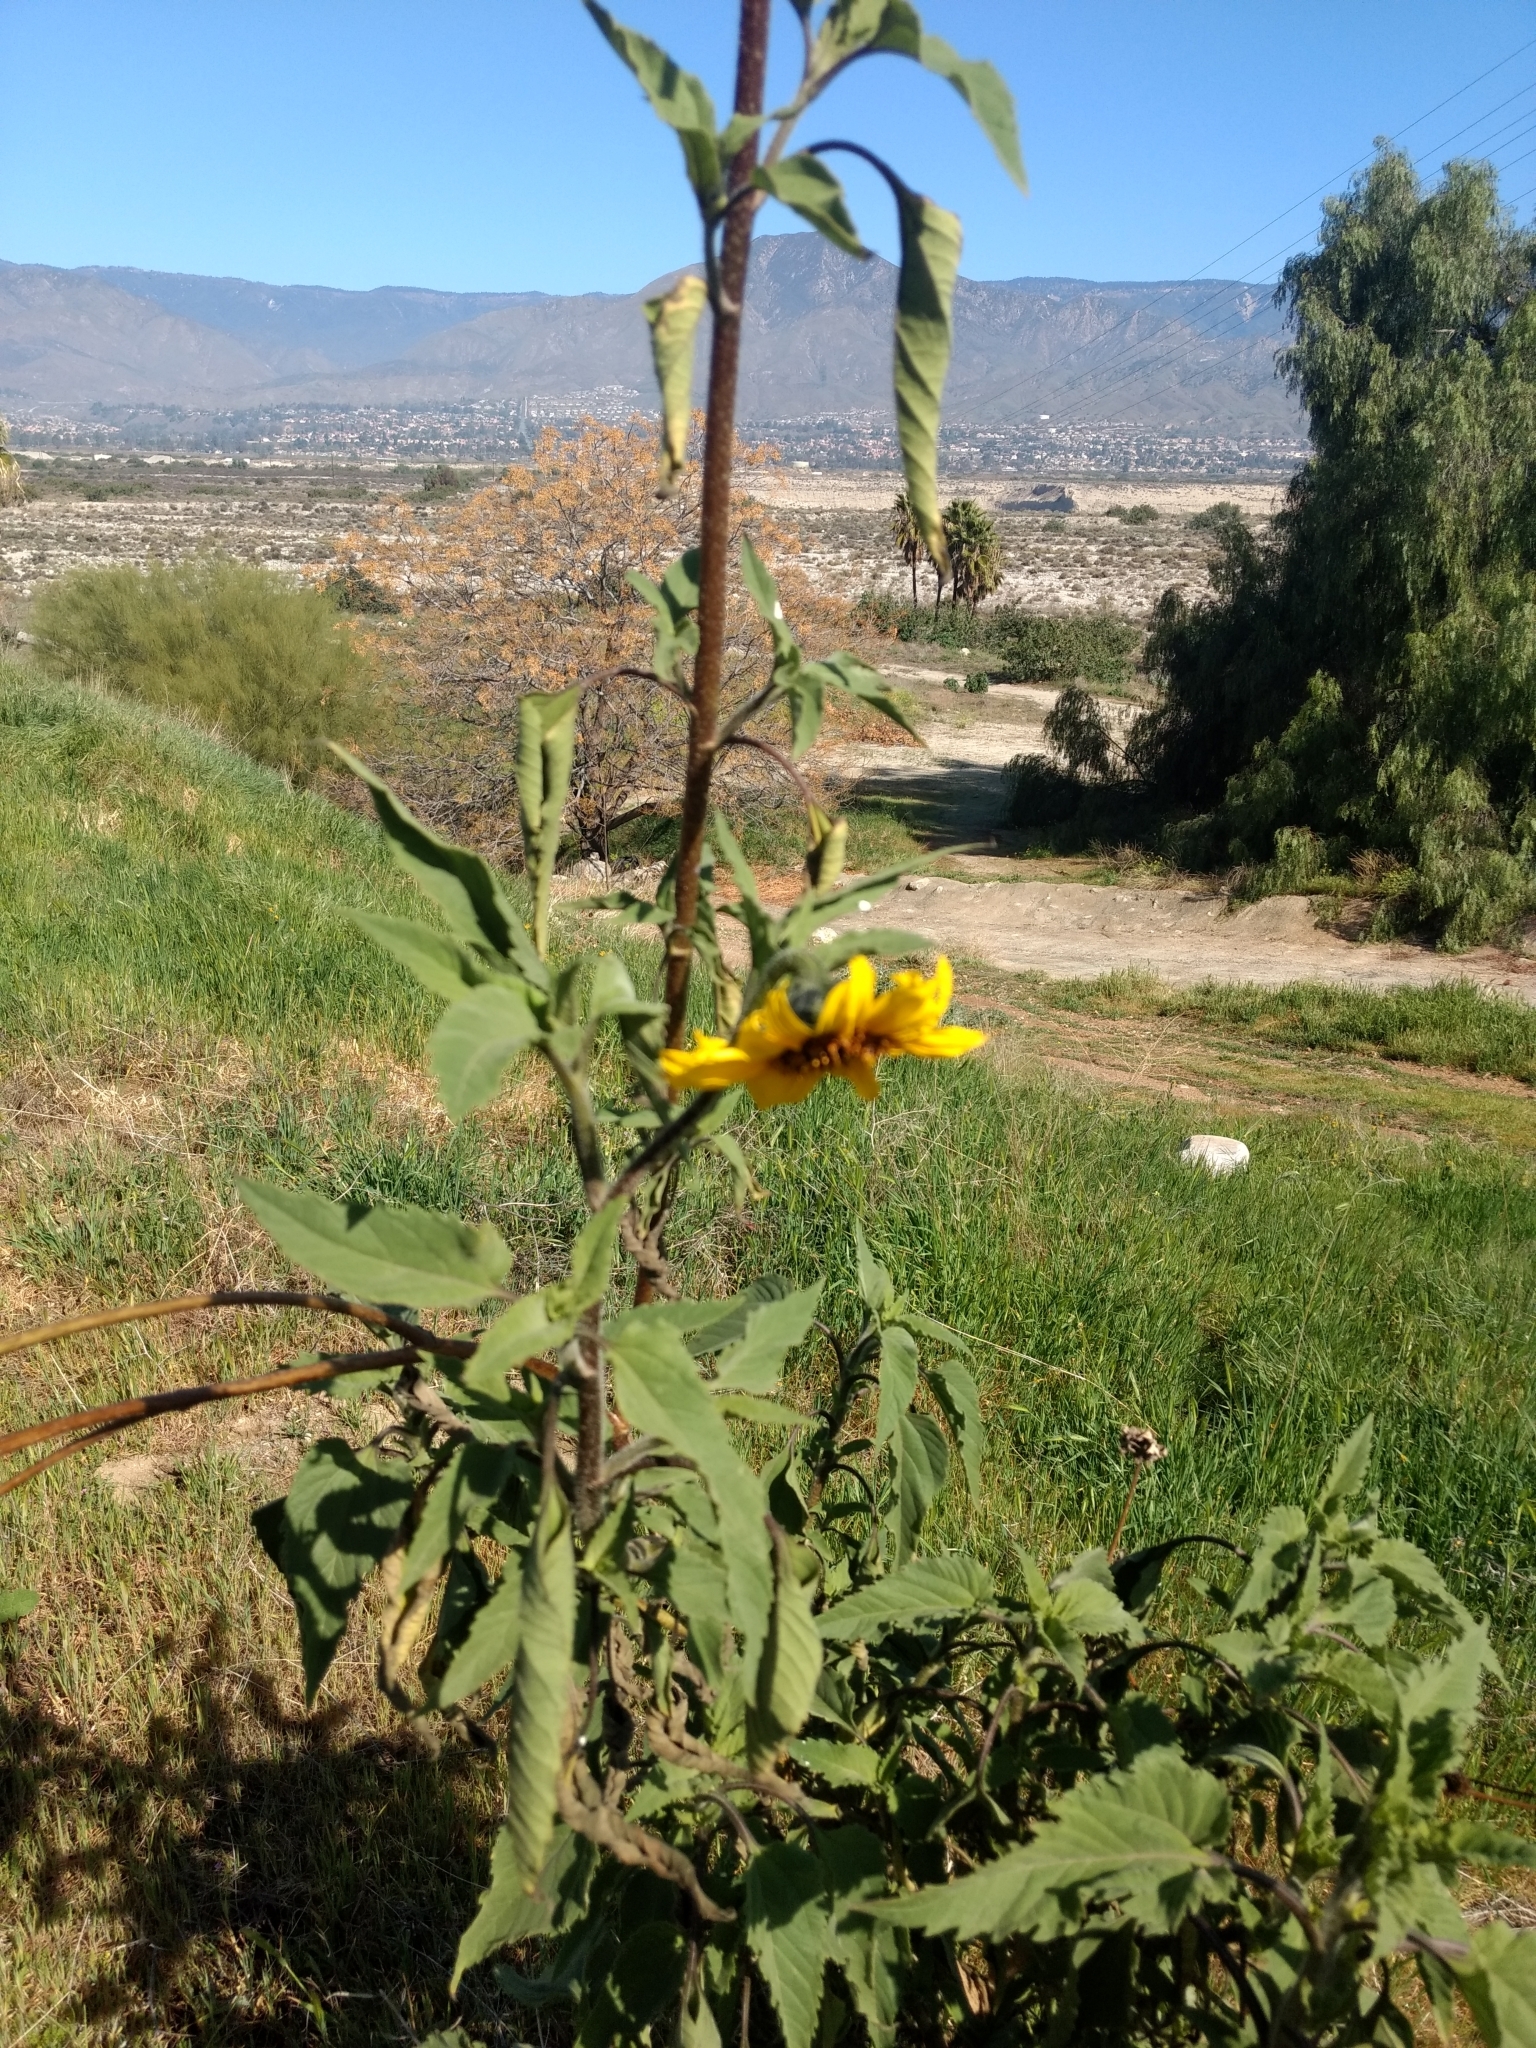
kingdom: Plantae
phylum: Tracheophyta
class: Magnoliopsida
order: Asterales
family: Asteraceae
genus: Helianthus
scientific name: Helianthus annuus
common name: Sunflower
